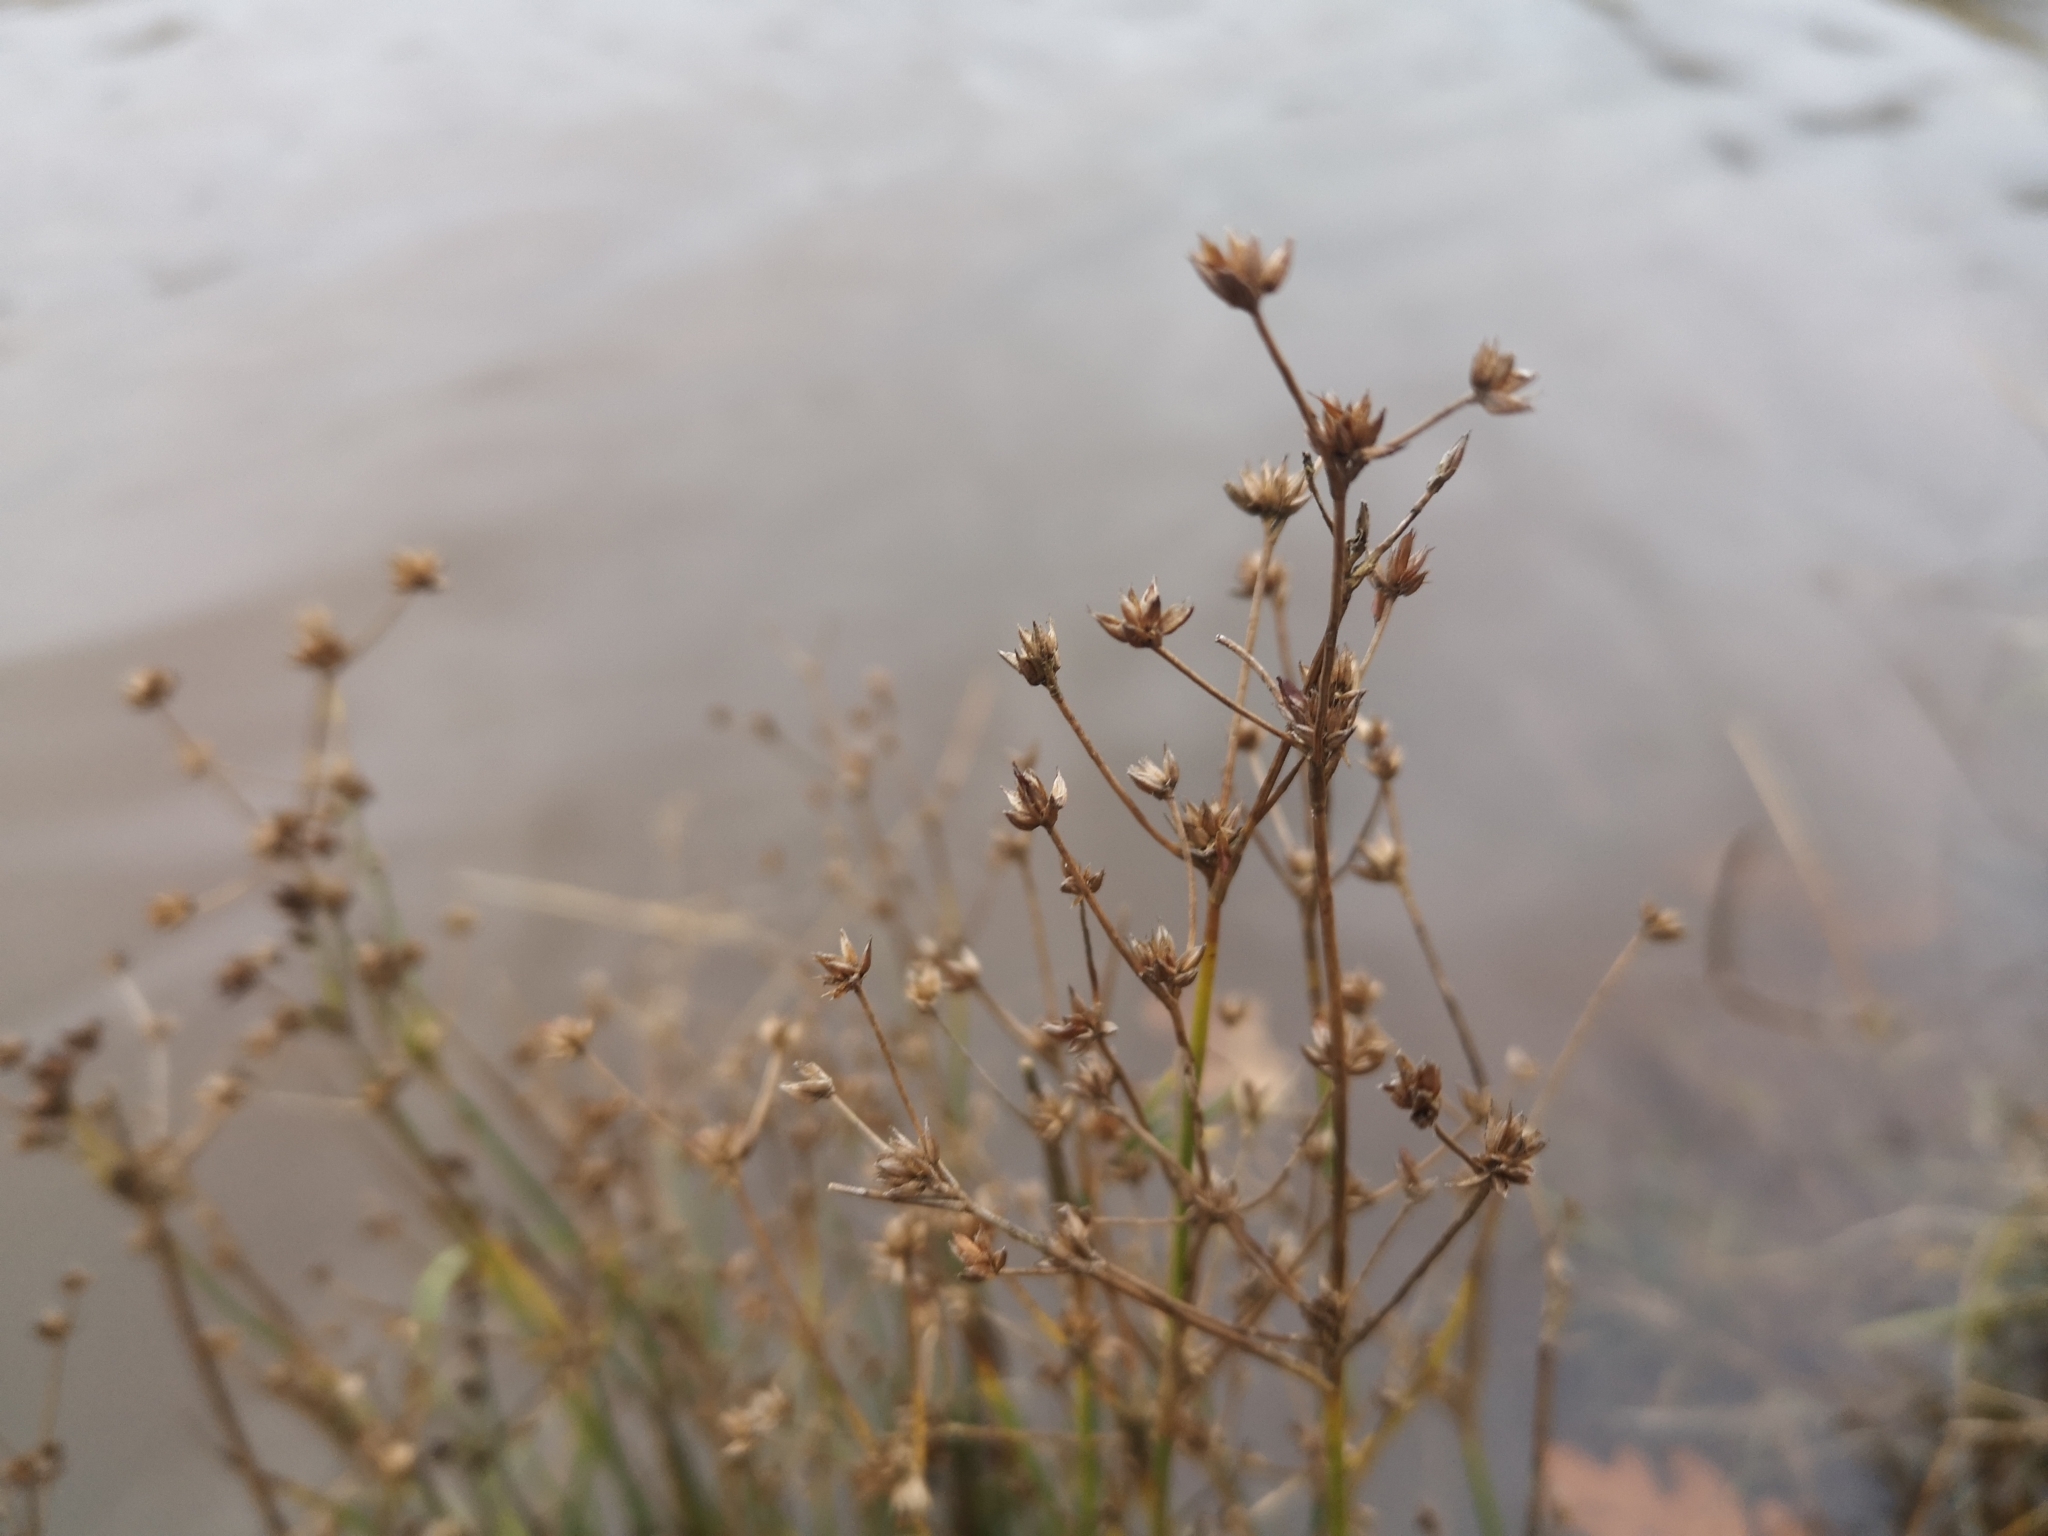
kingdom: Plantae
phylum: Tracheophyta
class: Liliopsida
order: Poales
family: Juncaceae
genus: Juncus
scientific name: Juncus articulatus
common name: Jointed rush
